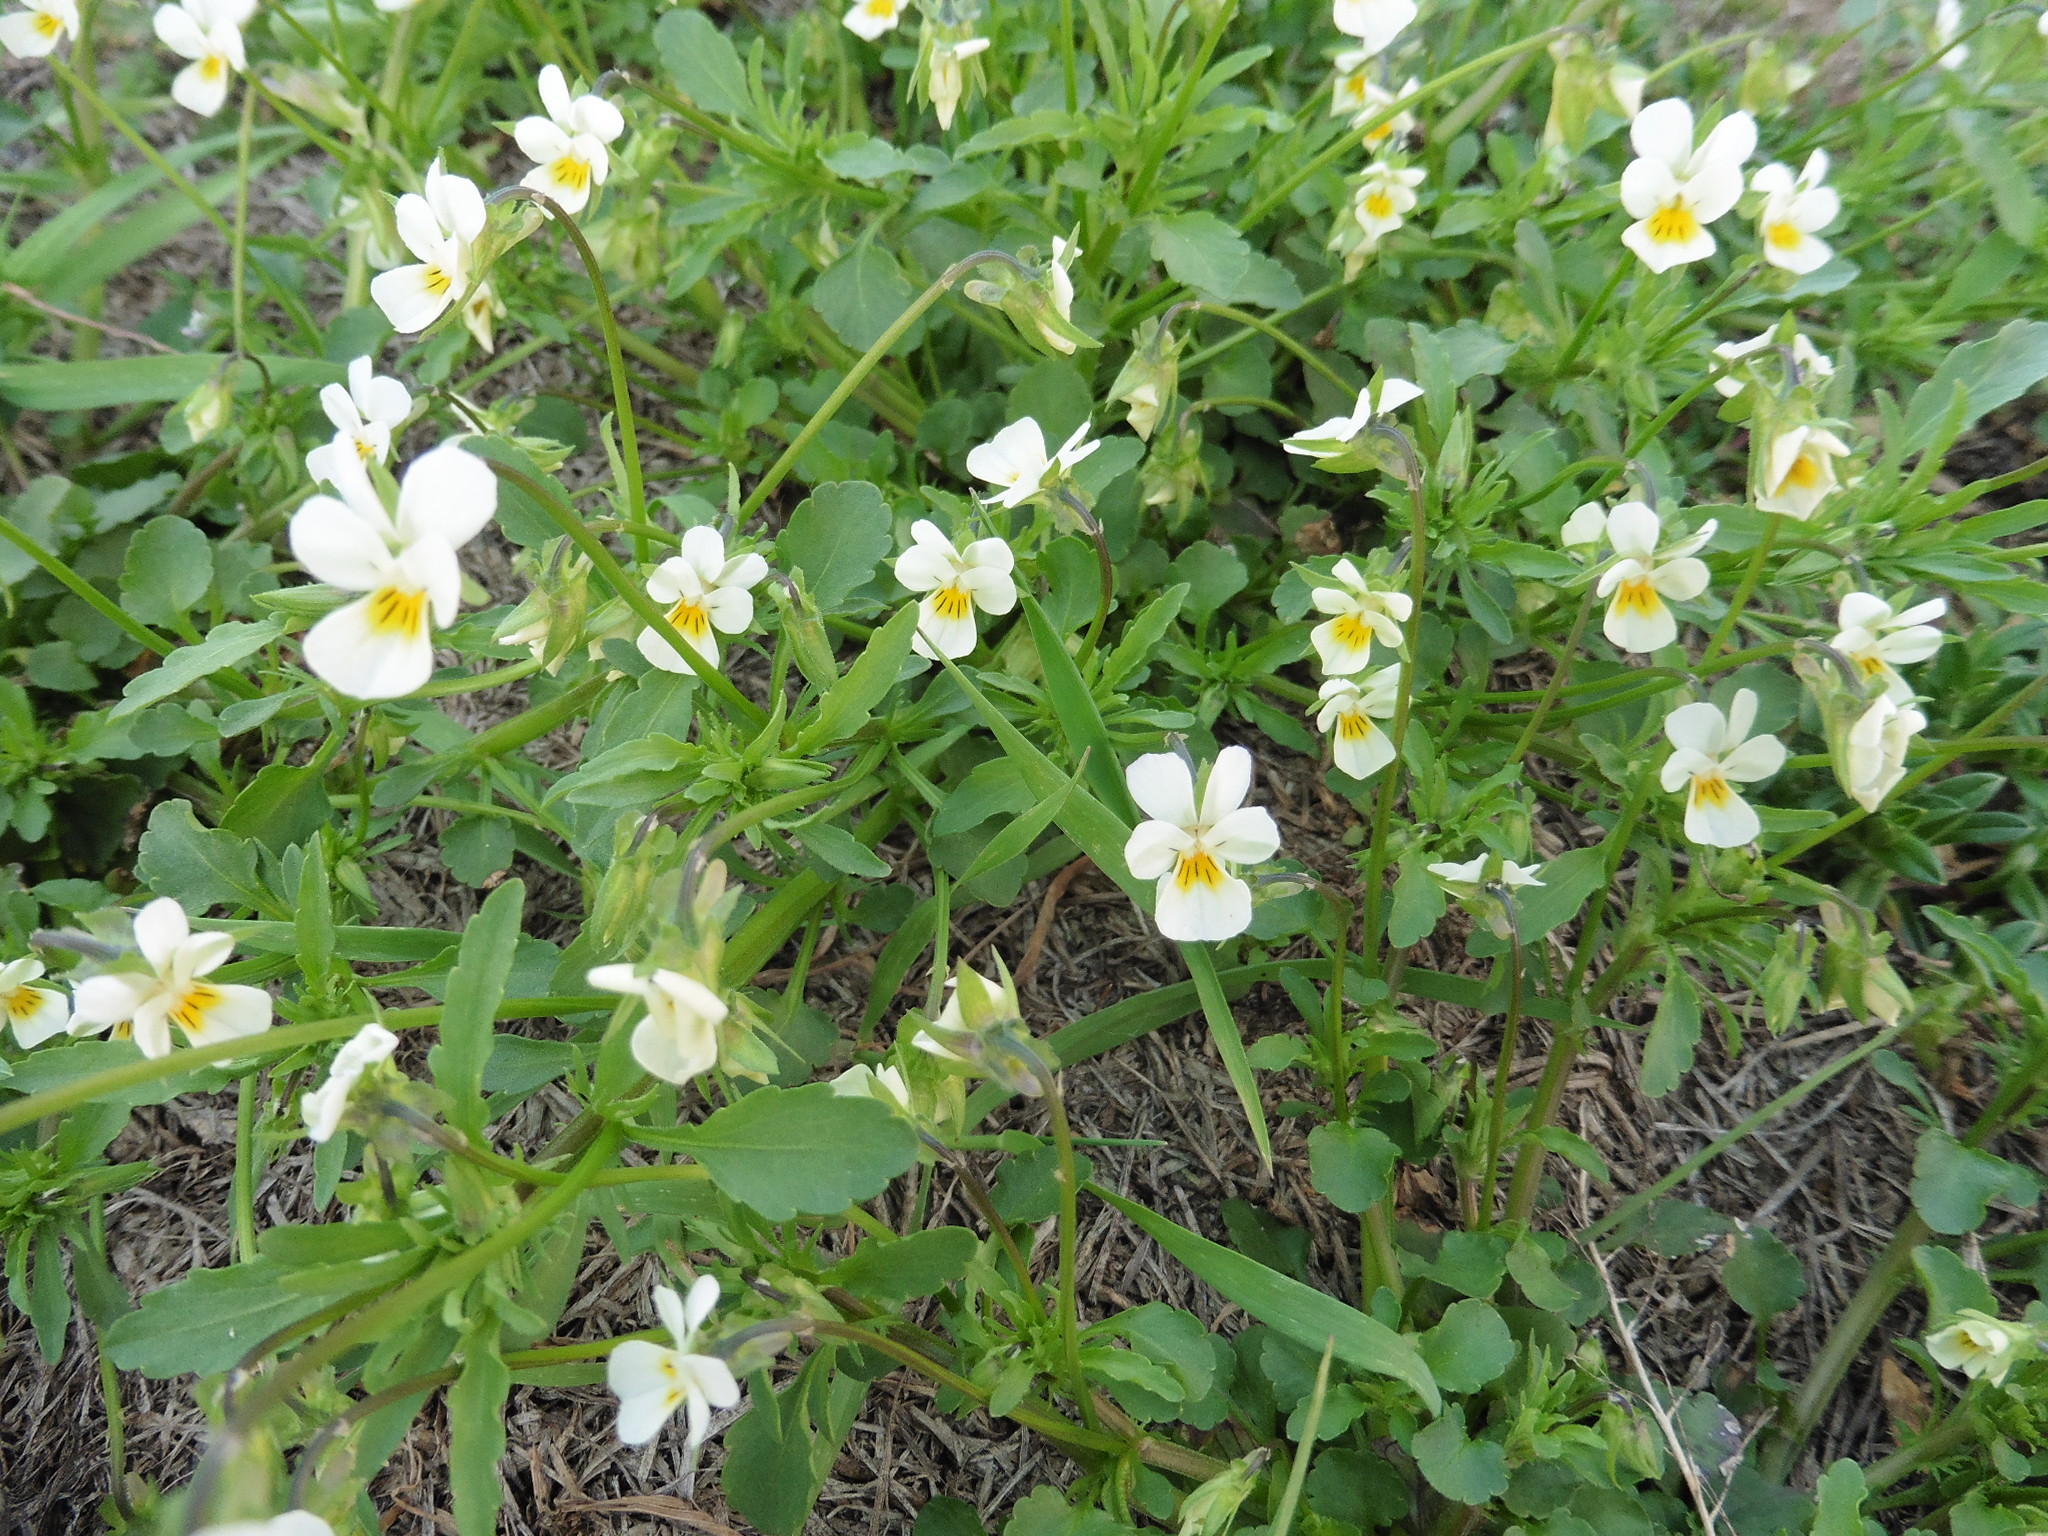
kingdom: Plantae
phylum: Tracheophyta
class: Magnoliopsida
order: Malpighiales
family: Violaceae
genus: Viola
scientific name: Viola arvensis
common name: Field pansy
